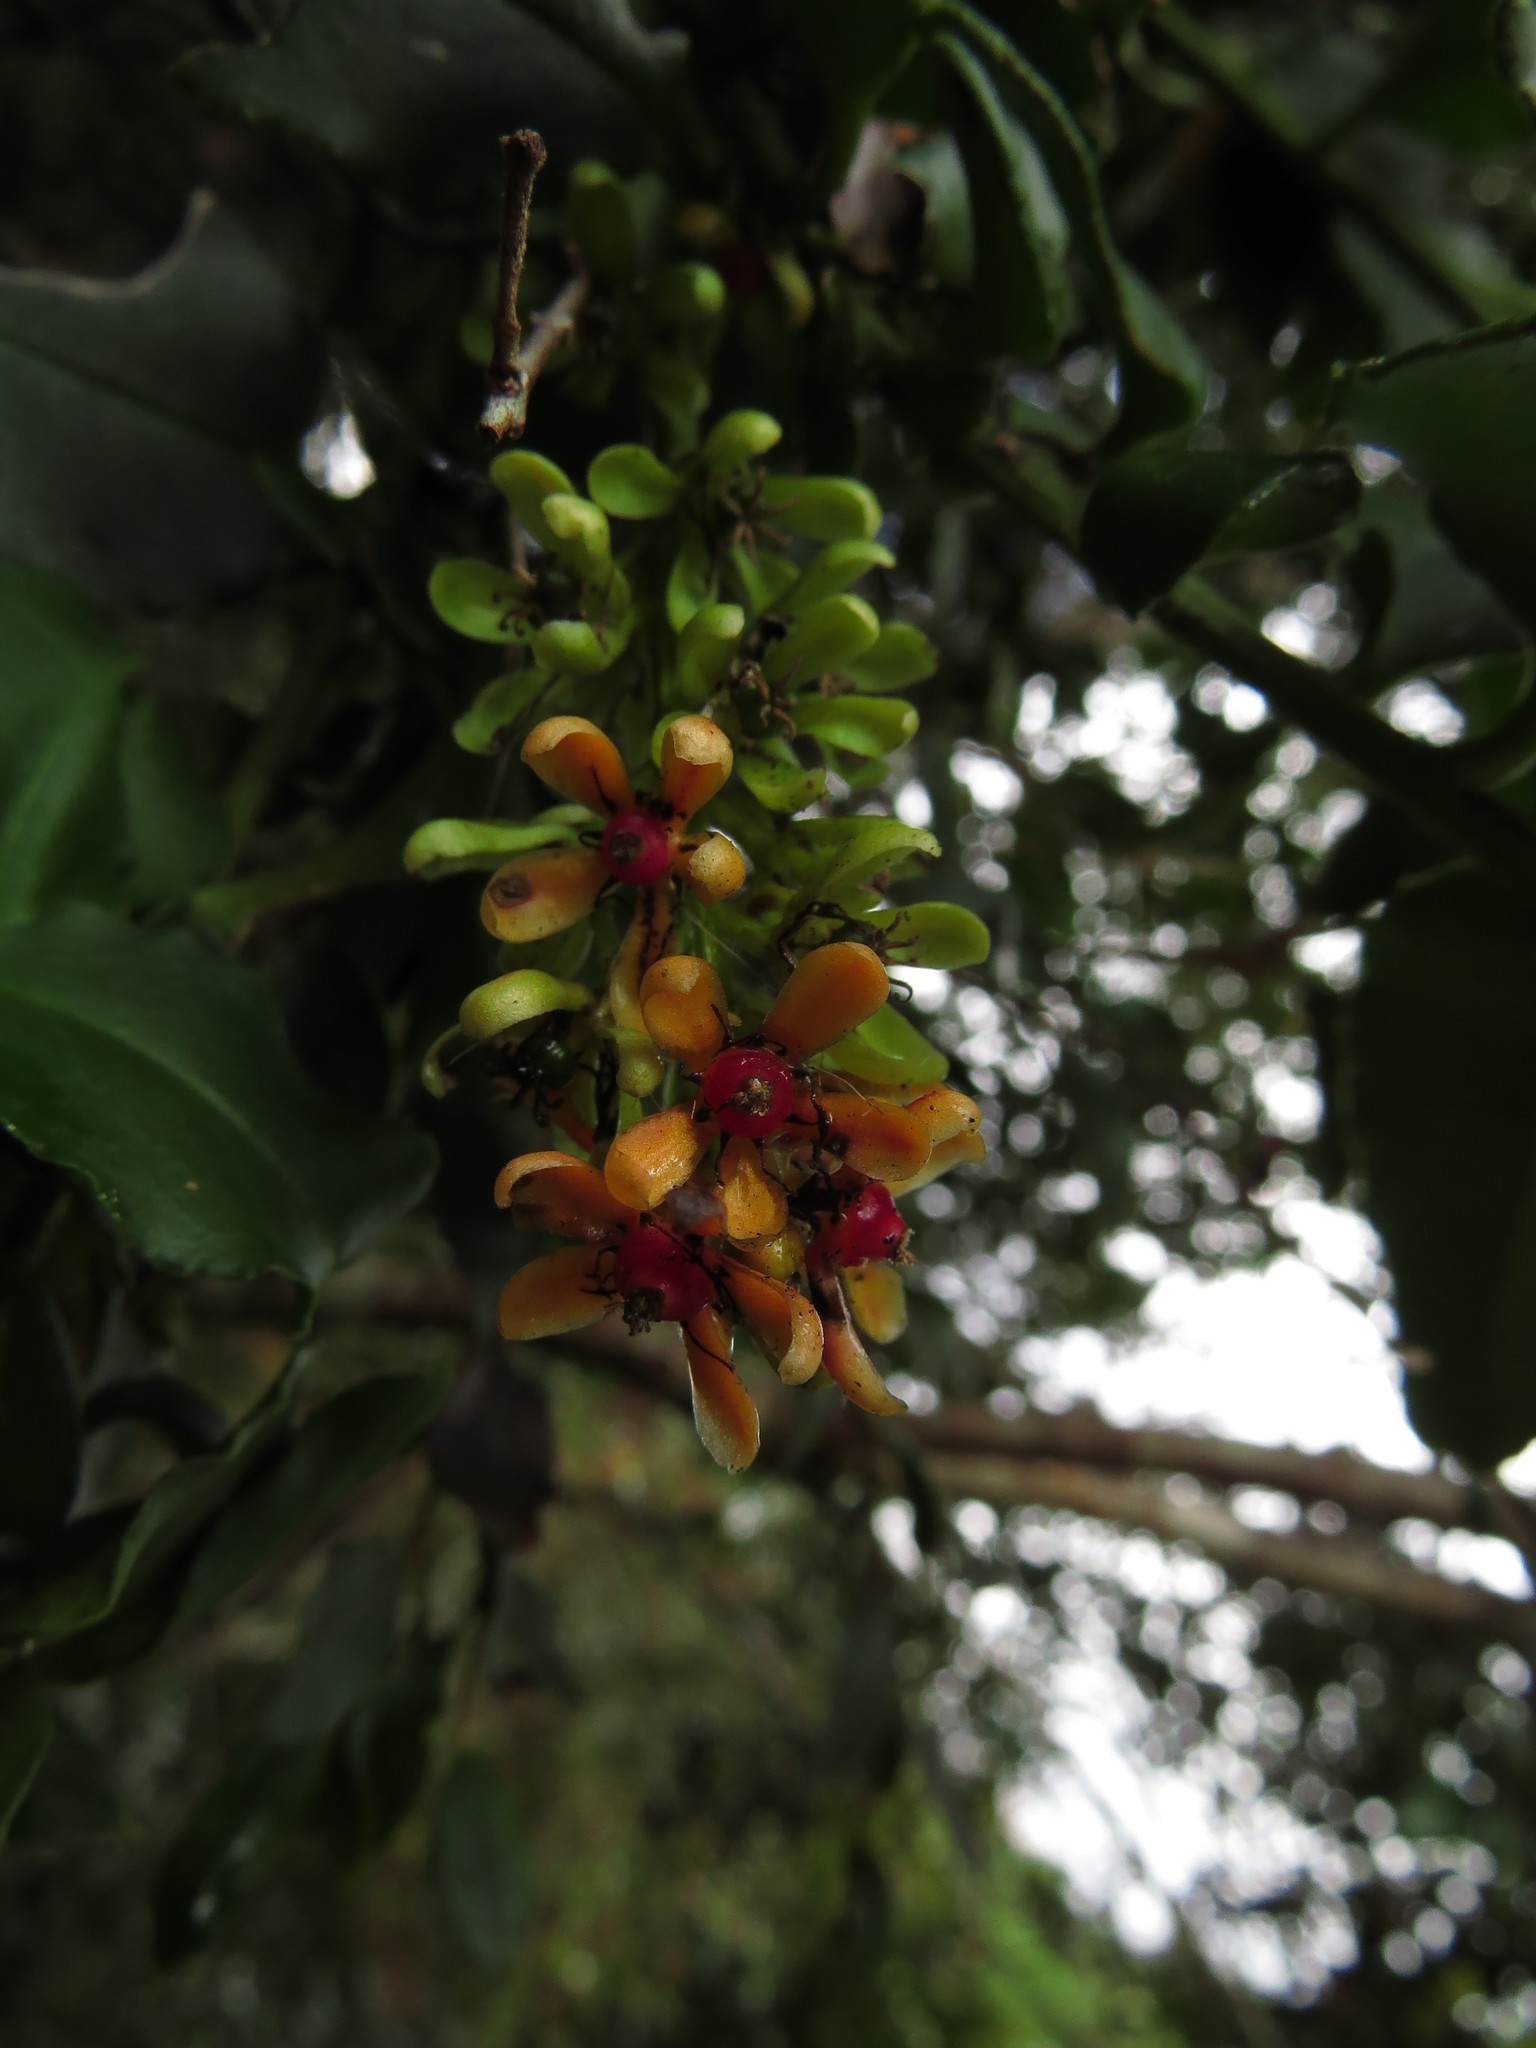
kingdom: Plantae
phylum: Tracheophyta
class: Magnoliopsida
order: Caryophyllales
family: Phytolaccaceae
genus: Ercilla
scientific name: Ercilla syncarpellata
